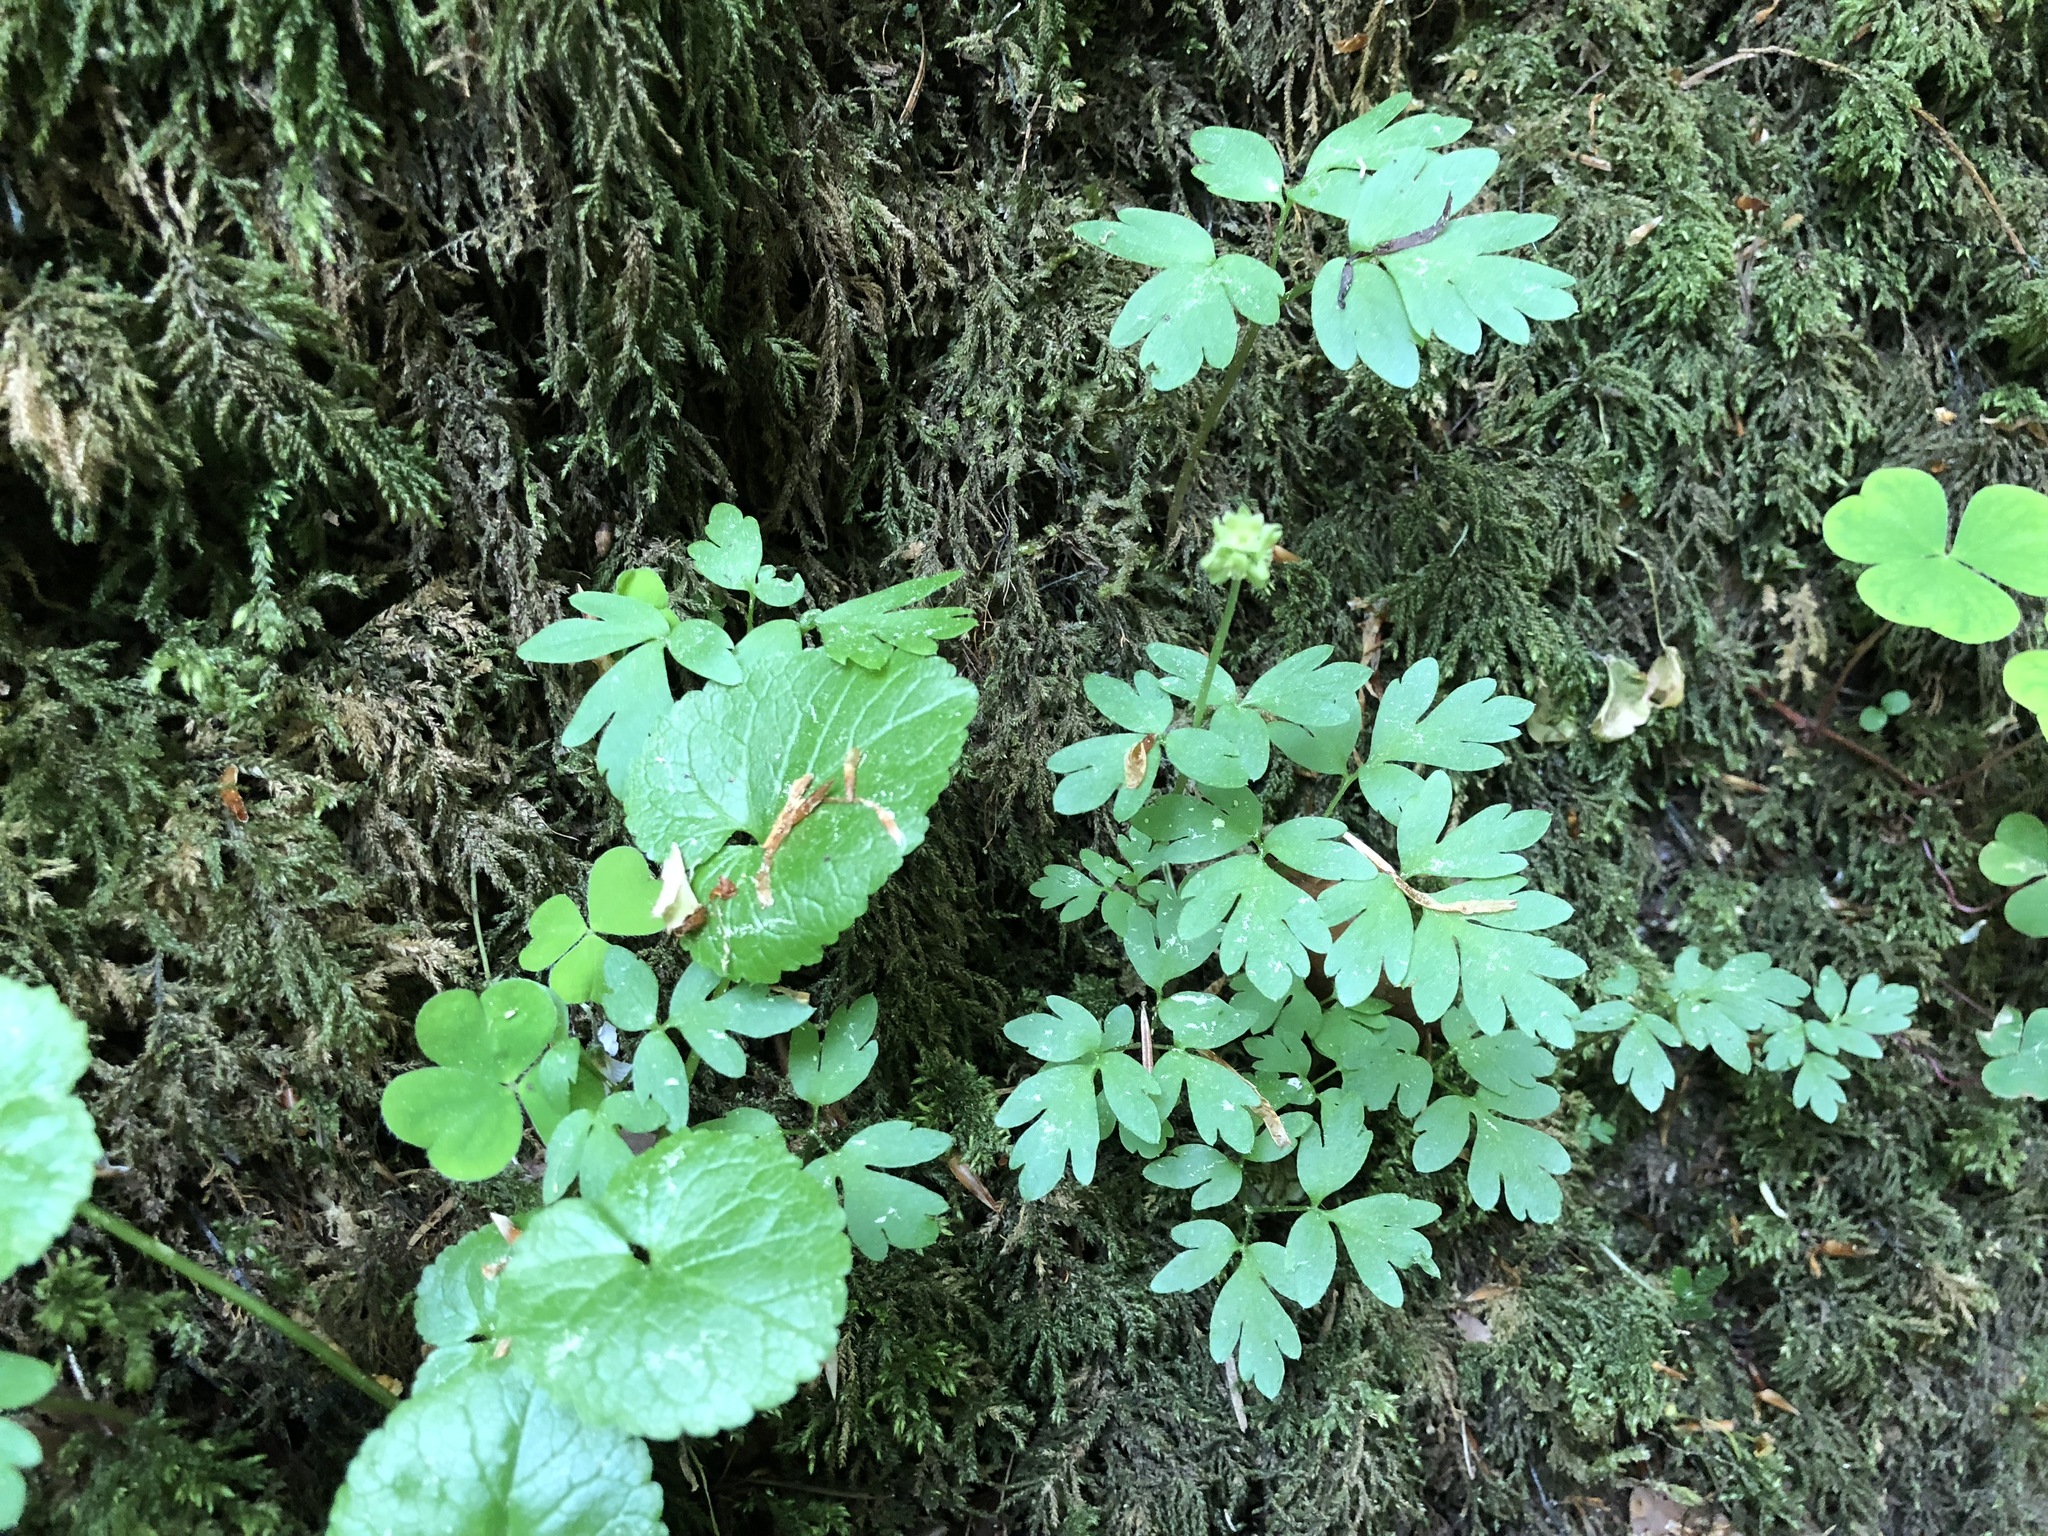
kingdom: Plantae
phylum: Tracheophyta
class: Magnoliopsida
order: Dipsacales
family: Viburnaceae
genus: Adoxa
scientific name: Adoxa moschatellina
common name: Moschatel
